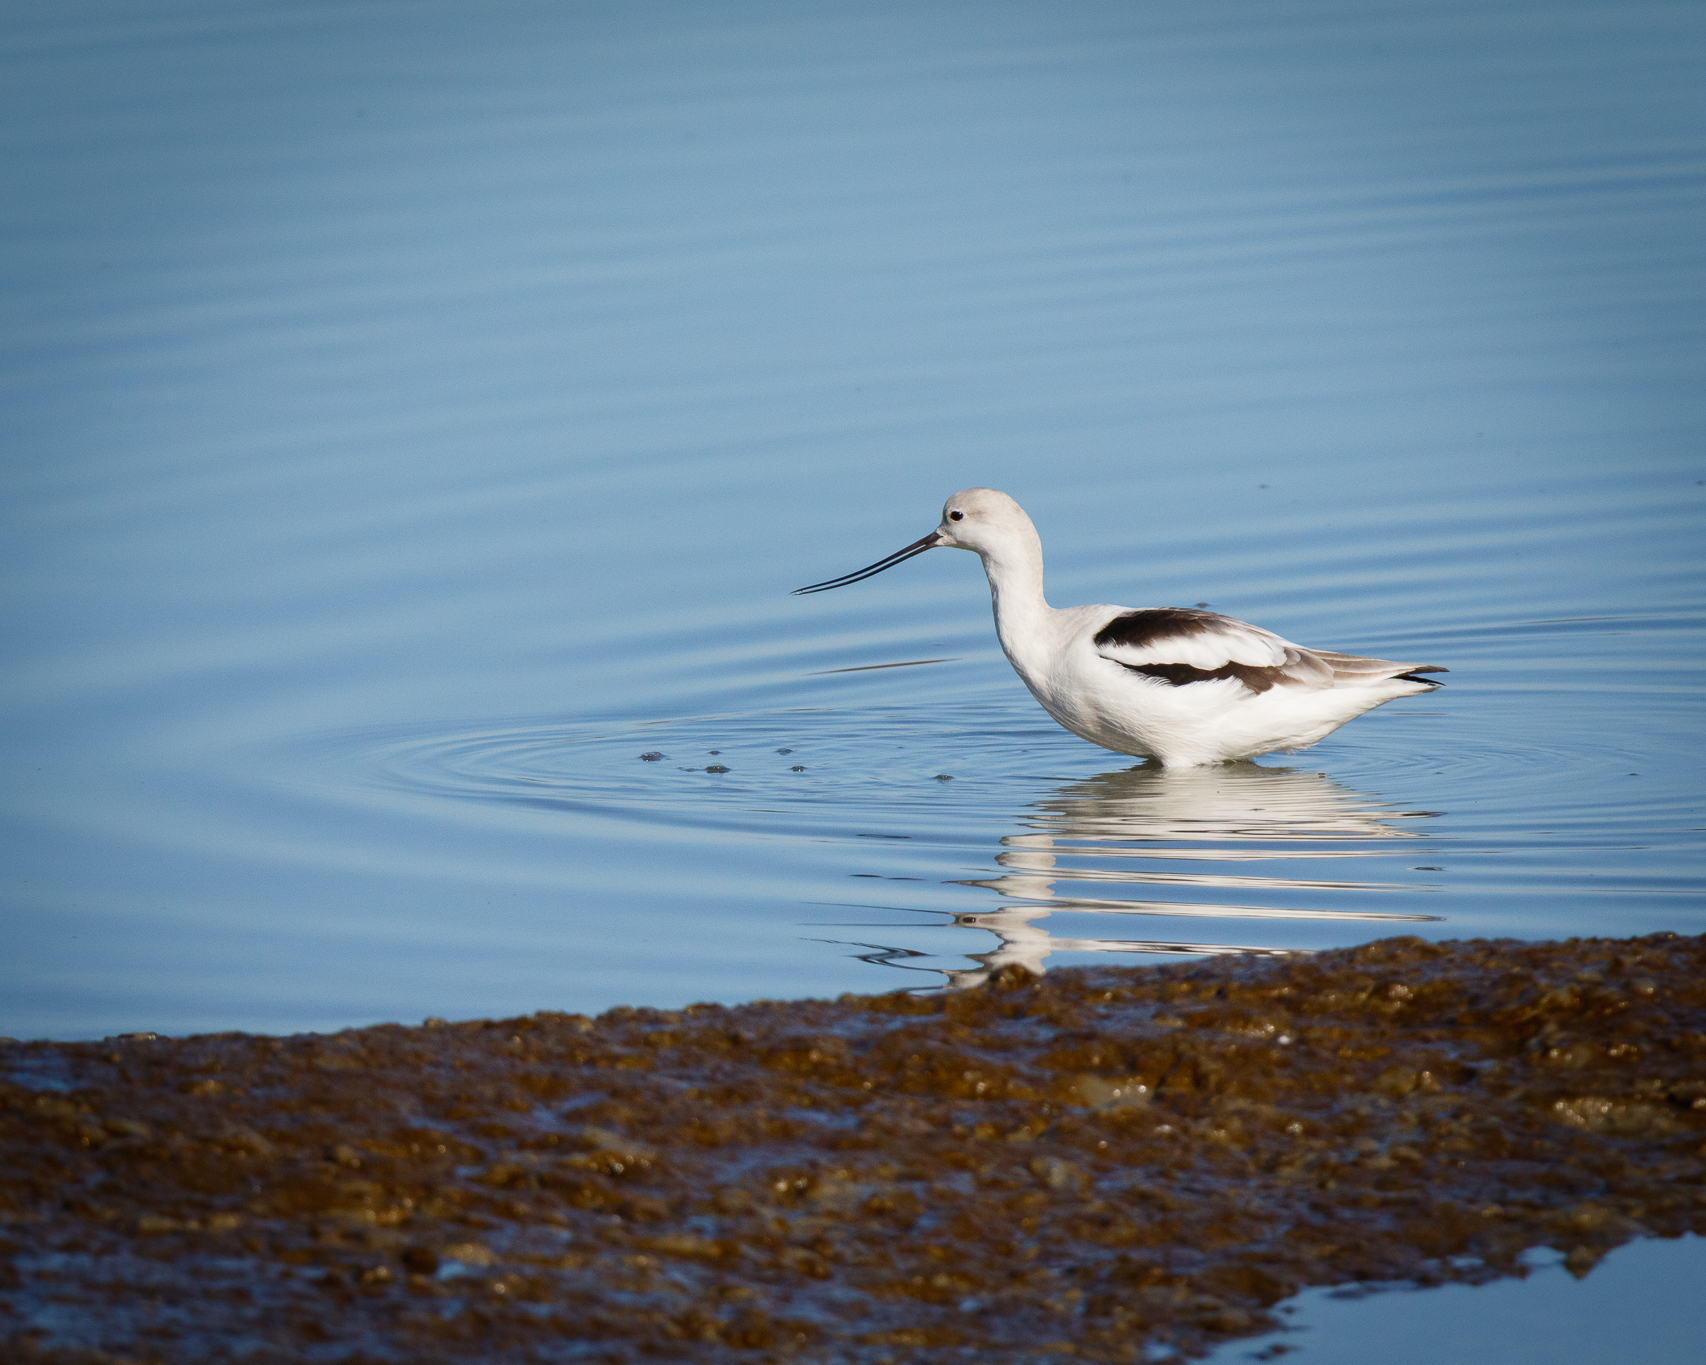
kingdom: Animalia
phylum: Chordata
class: Aves
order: Charadriiformes
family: Recurvirostridae
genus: Recurvirostra
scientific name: Recurvirostra americana
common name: American avocet
